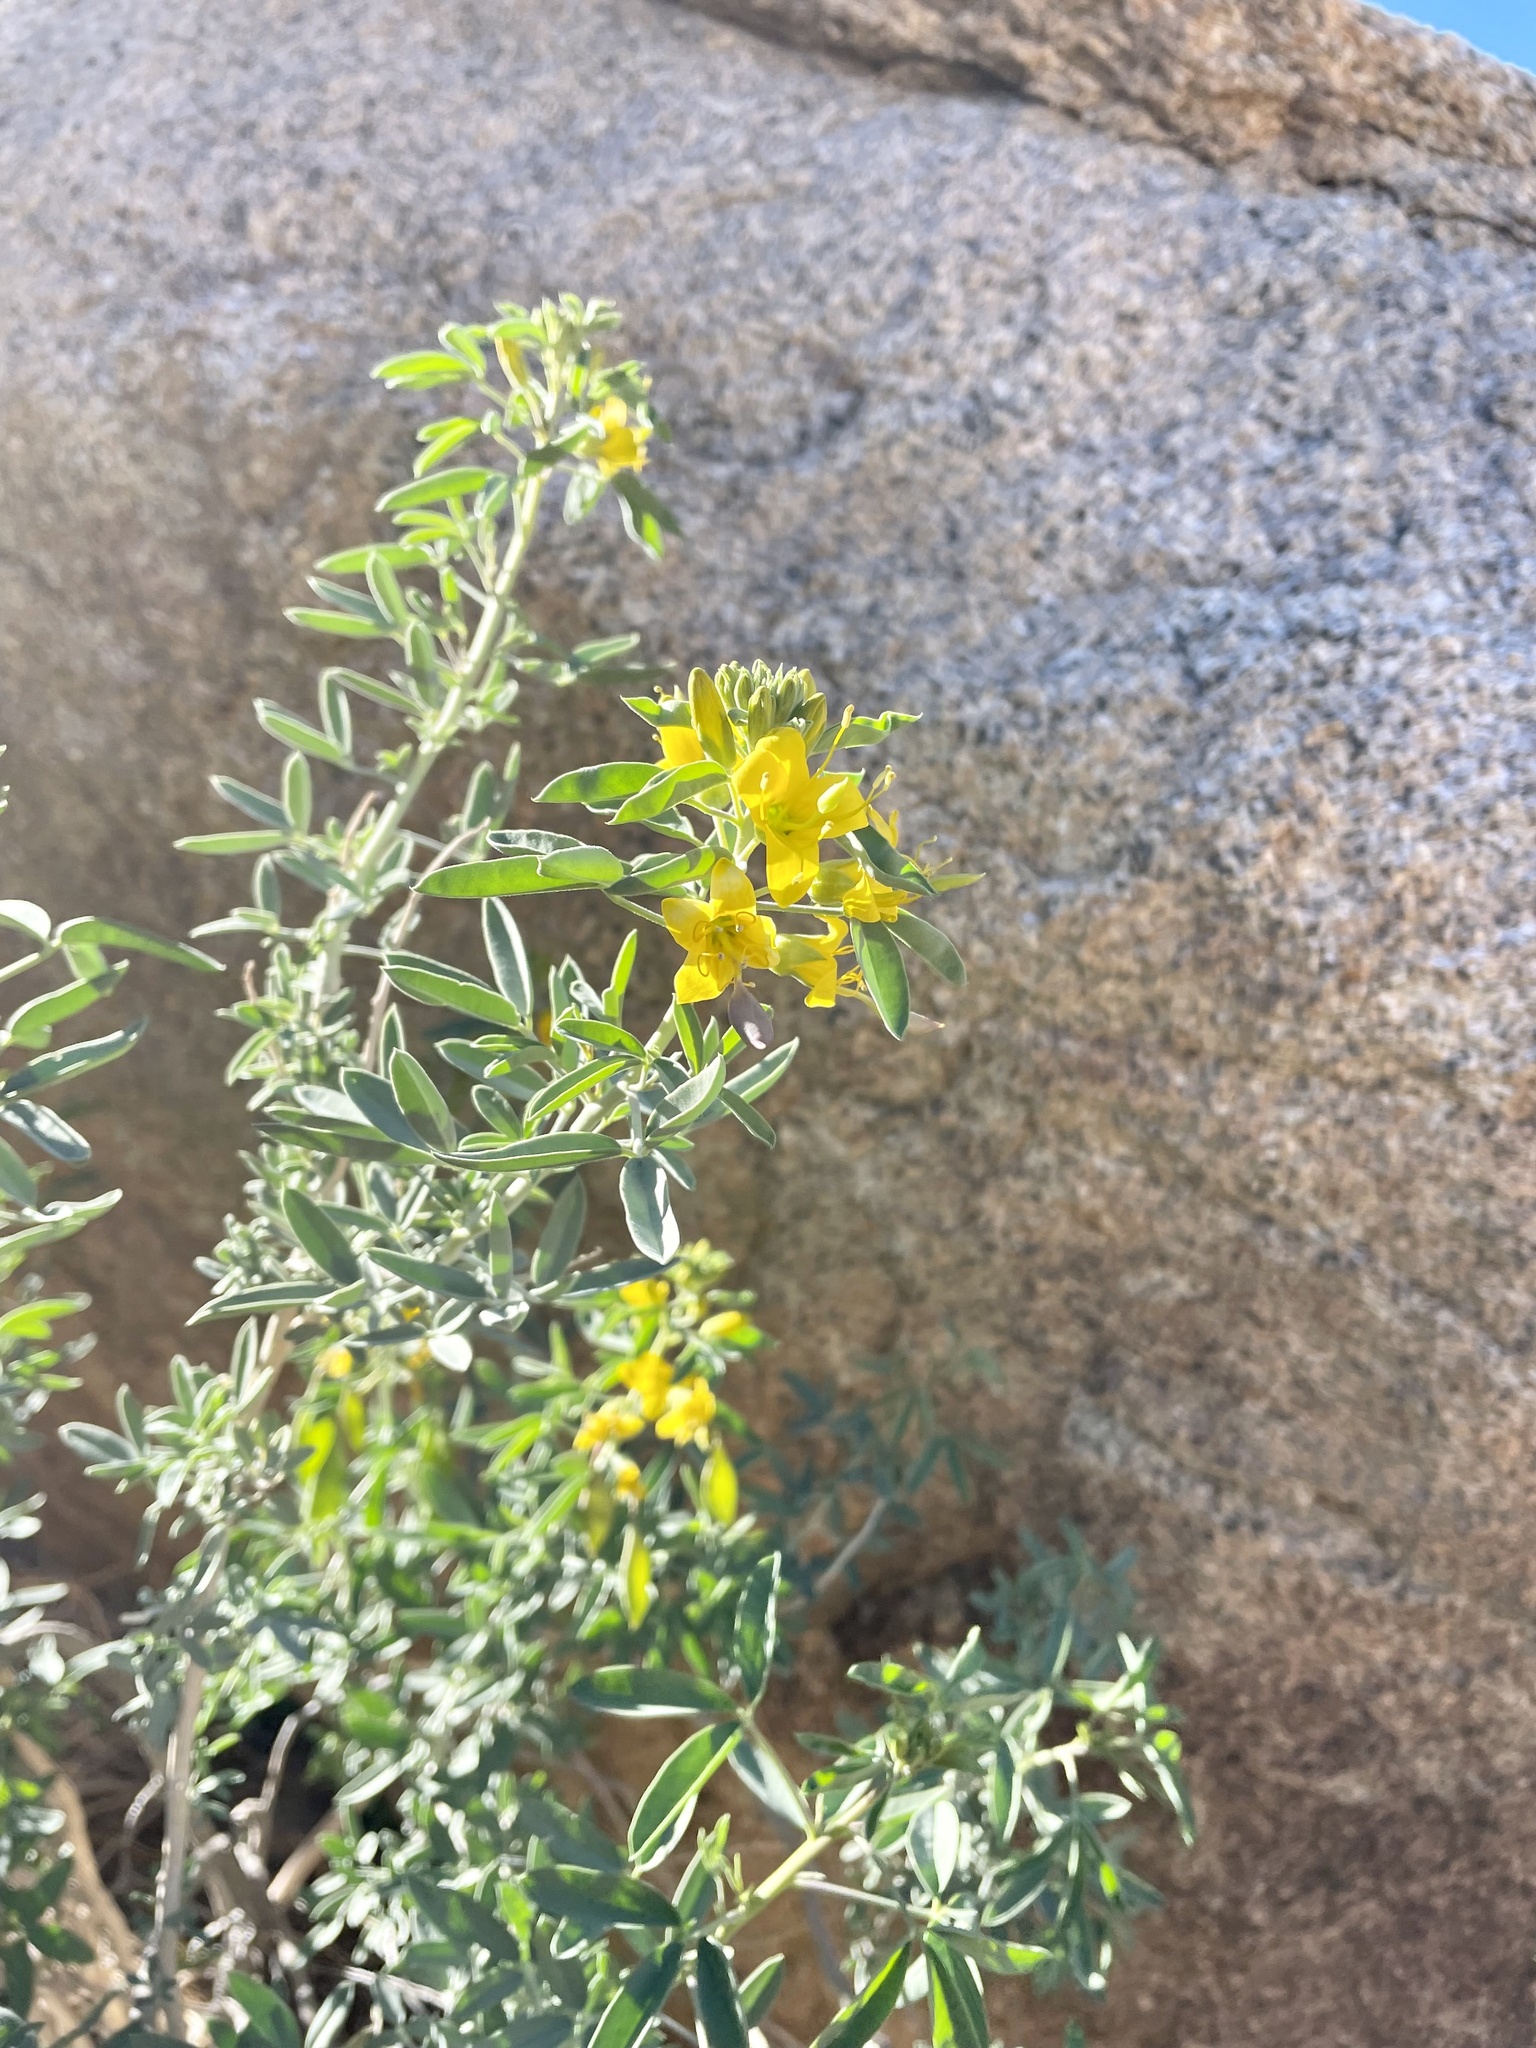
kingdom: Plantae
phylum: Tracheophyta
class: Magnoliopsida
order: Brassicales
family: Cleomaceae
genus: Cleomella
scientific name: Cleomella arborea
